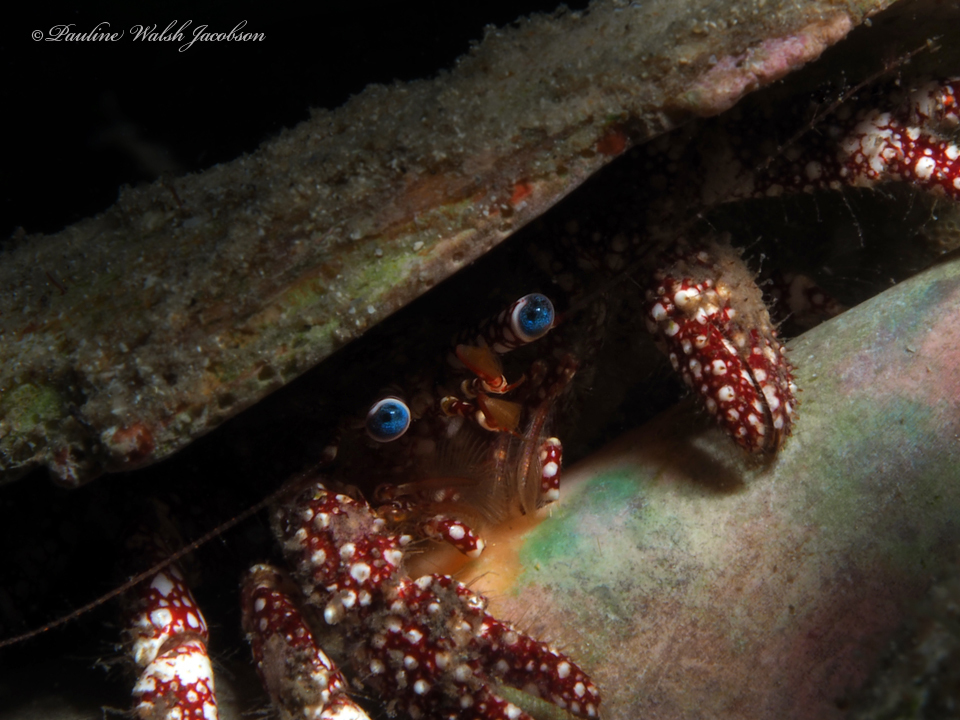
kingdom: Animalia
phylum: Arthropoda
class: Malacostraca
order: Decapoda
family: Diogenidae
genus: Paguristes
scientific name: Paguristes puncticeps
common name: White speckled hermit
